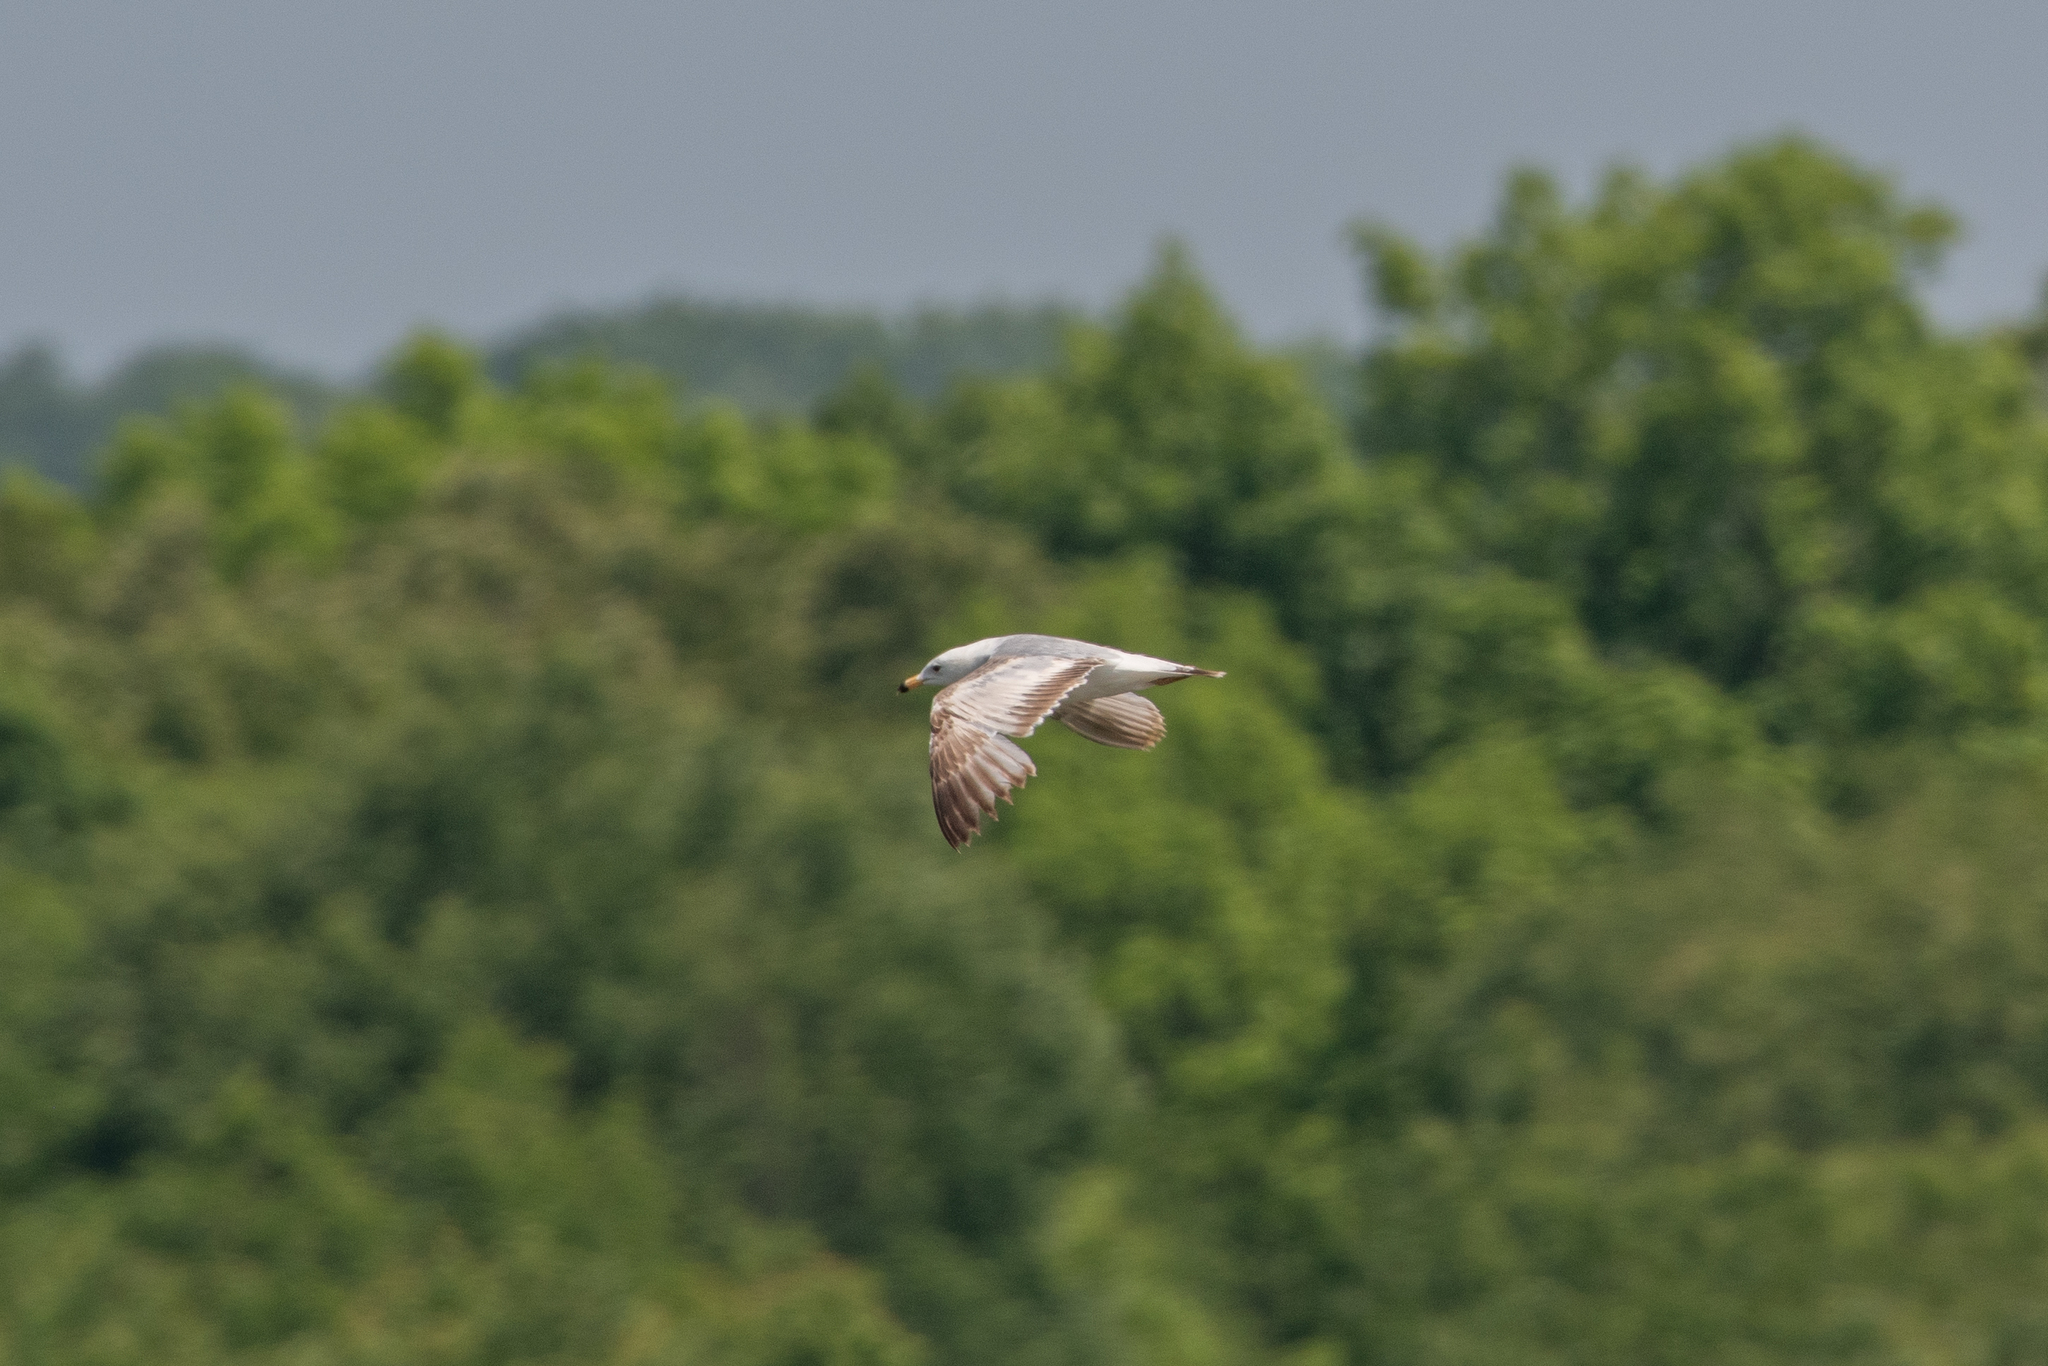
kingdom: Animalia
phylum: Chordata
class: Aves
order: Charadriiformes
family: Laridae
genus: Larus
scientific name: Larus delawarensis
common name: Ring-billed gull
